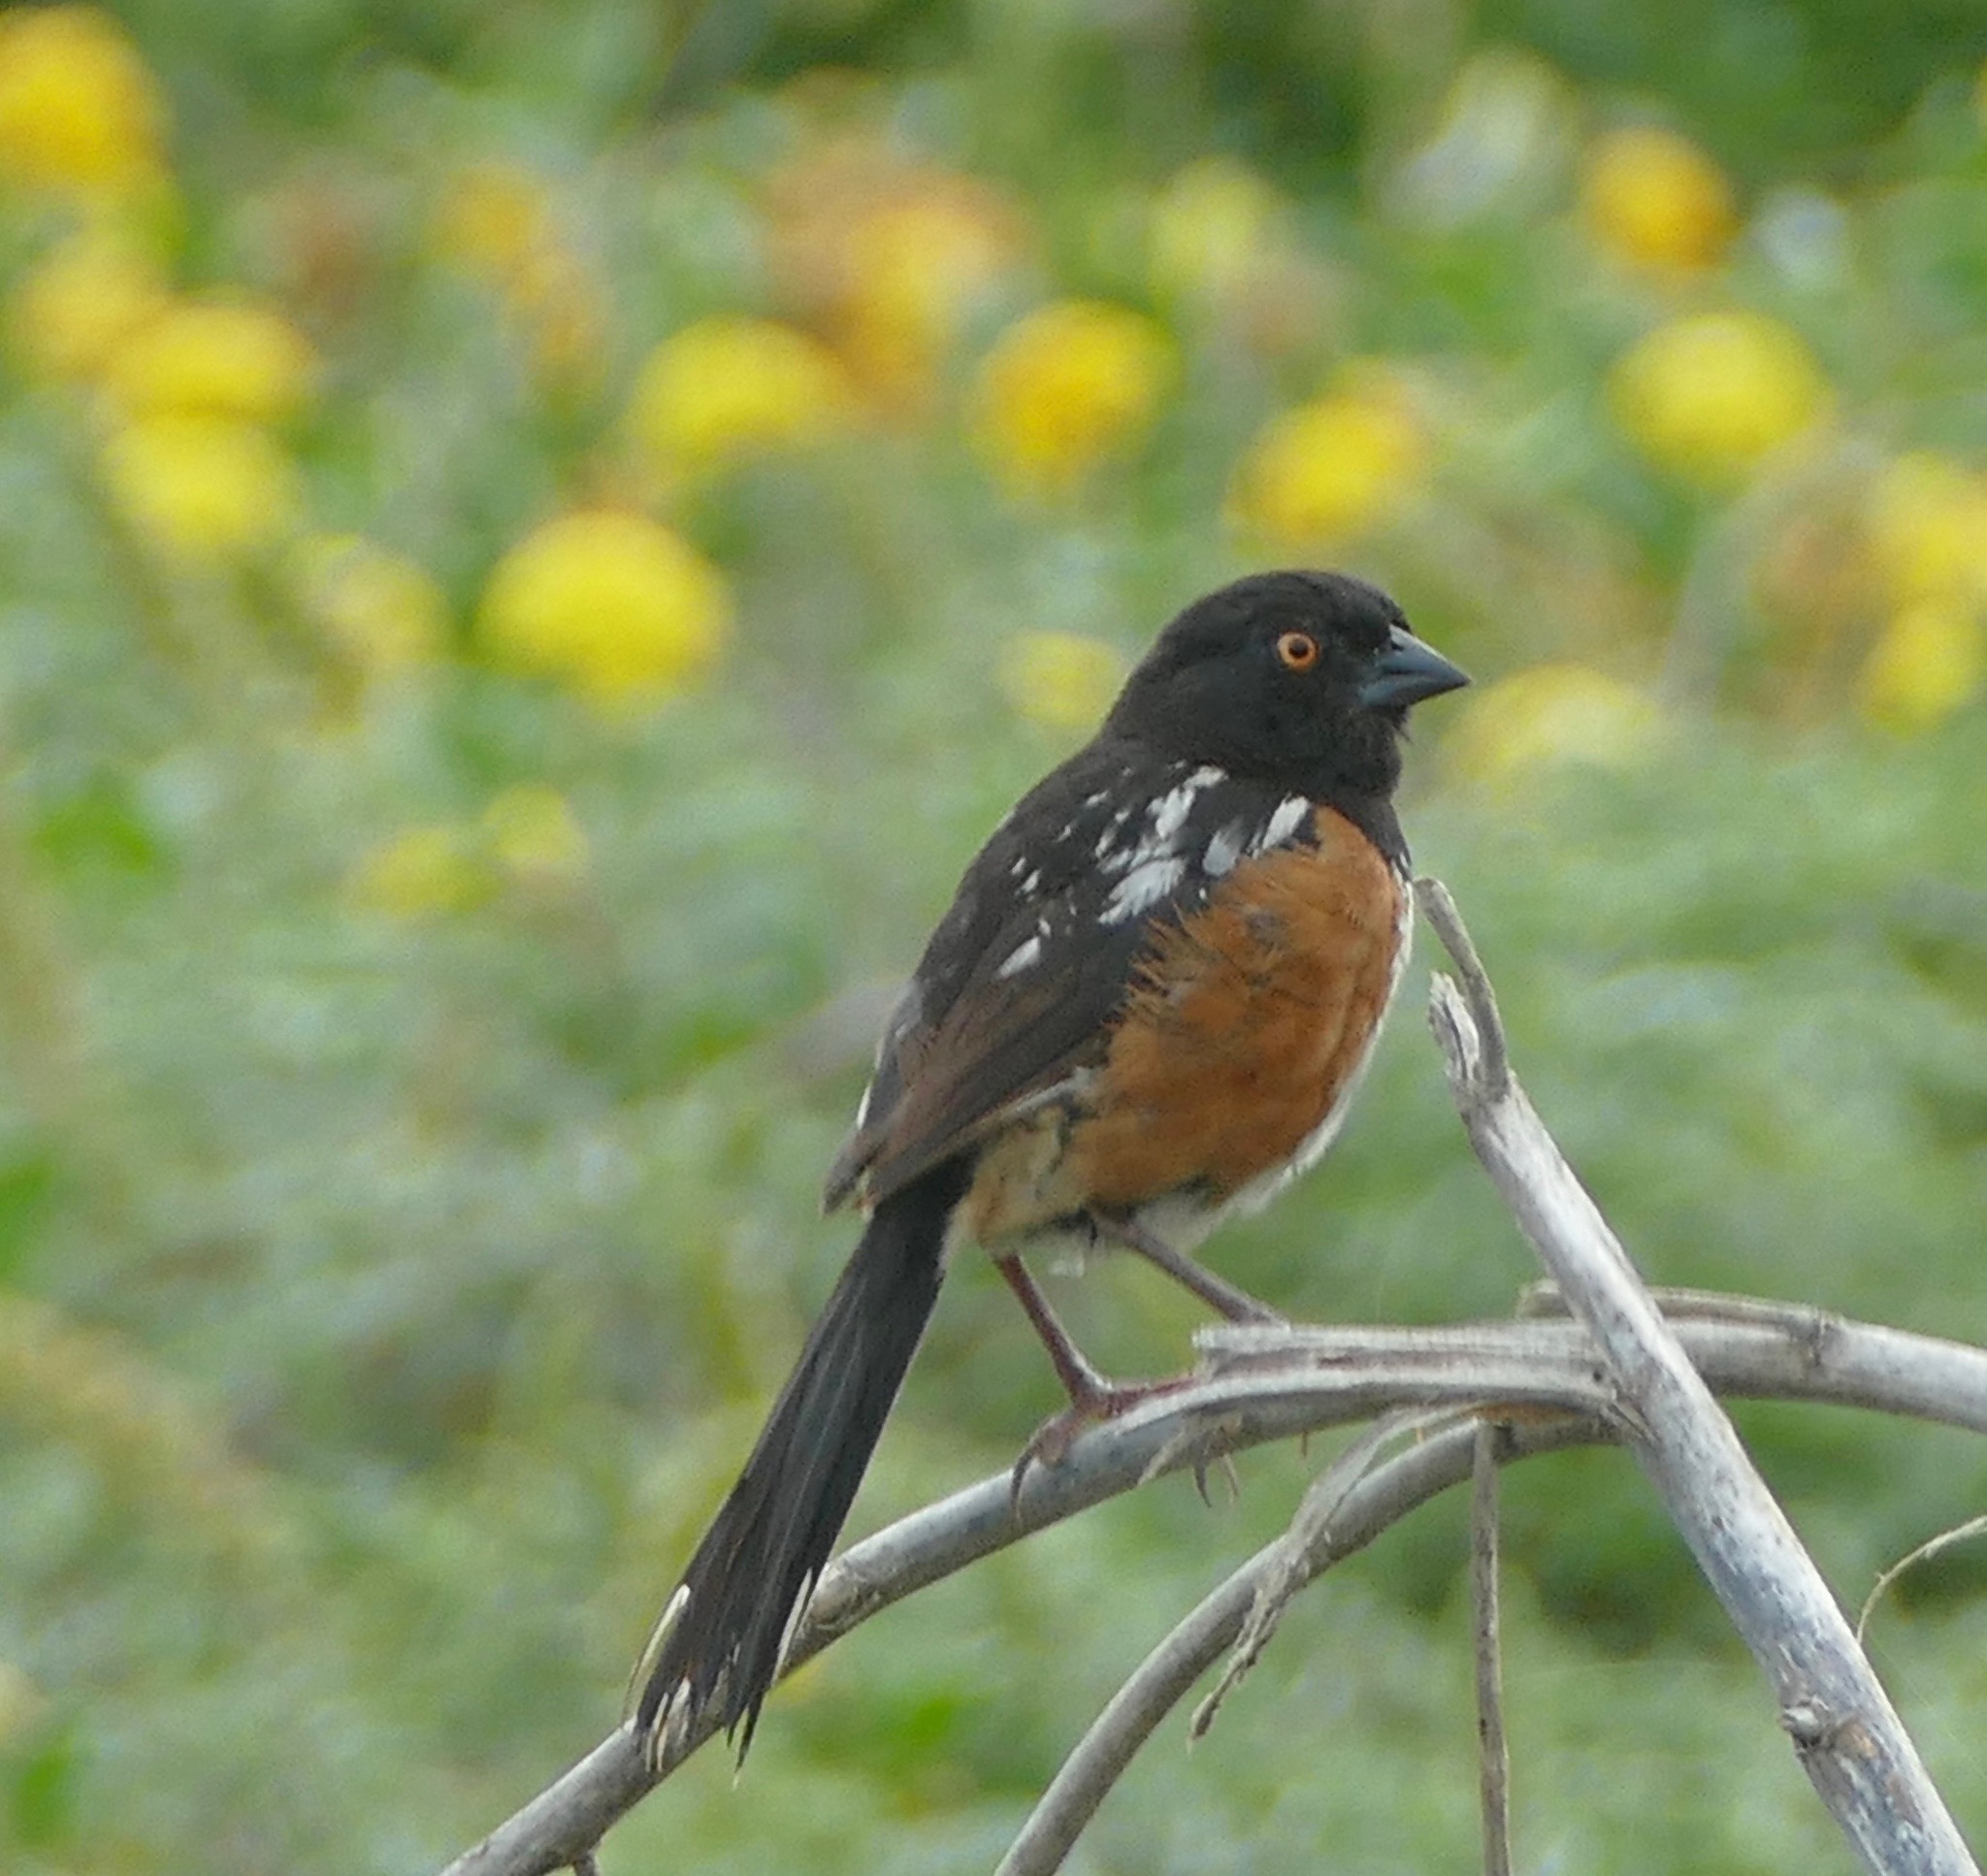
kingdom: Animalia
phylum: Chordata
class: Aves
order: Passeriformes
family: Passerellidae
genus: Pipilo
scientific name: Pipilo maculatus
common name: Spotted towhee
